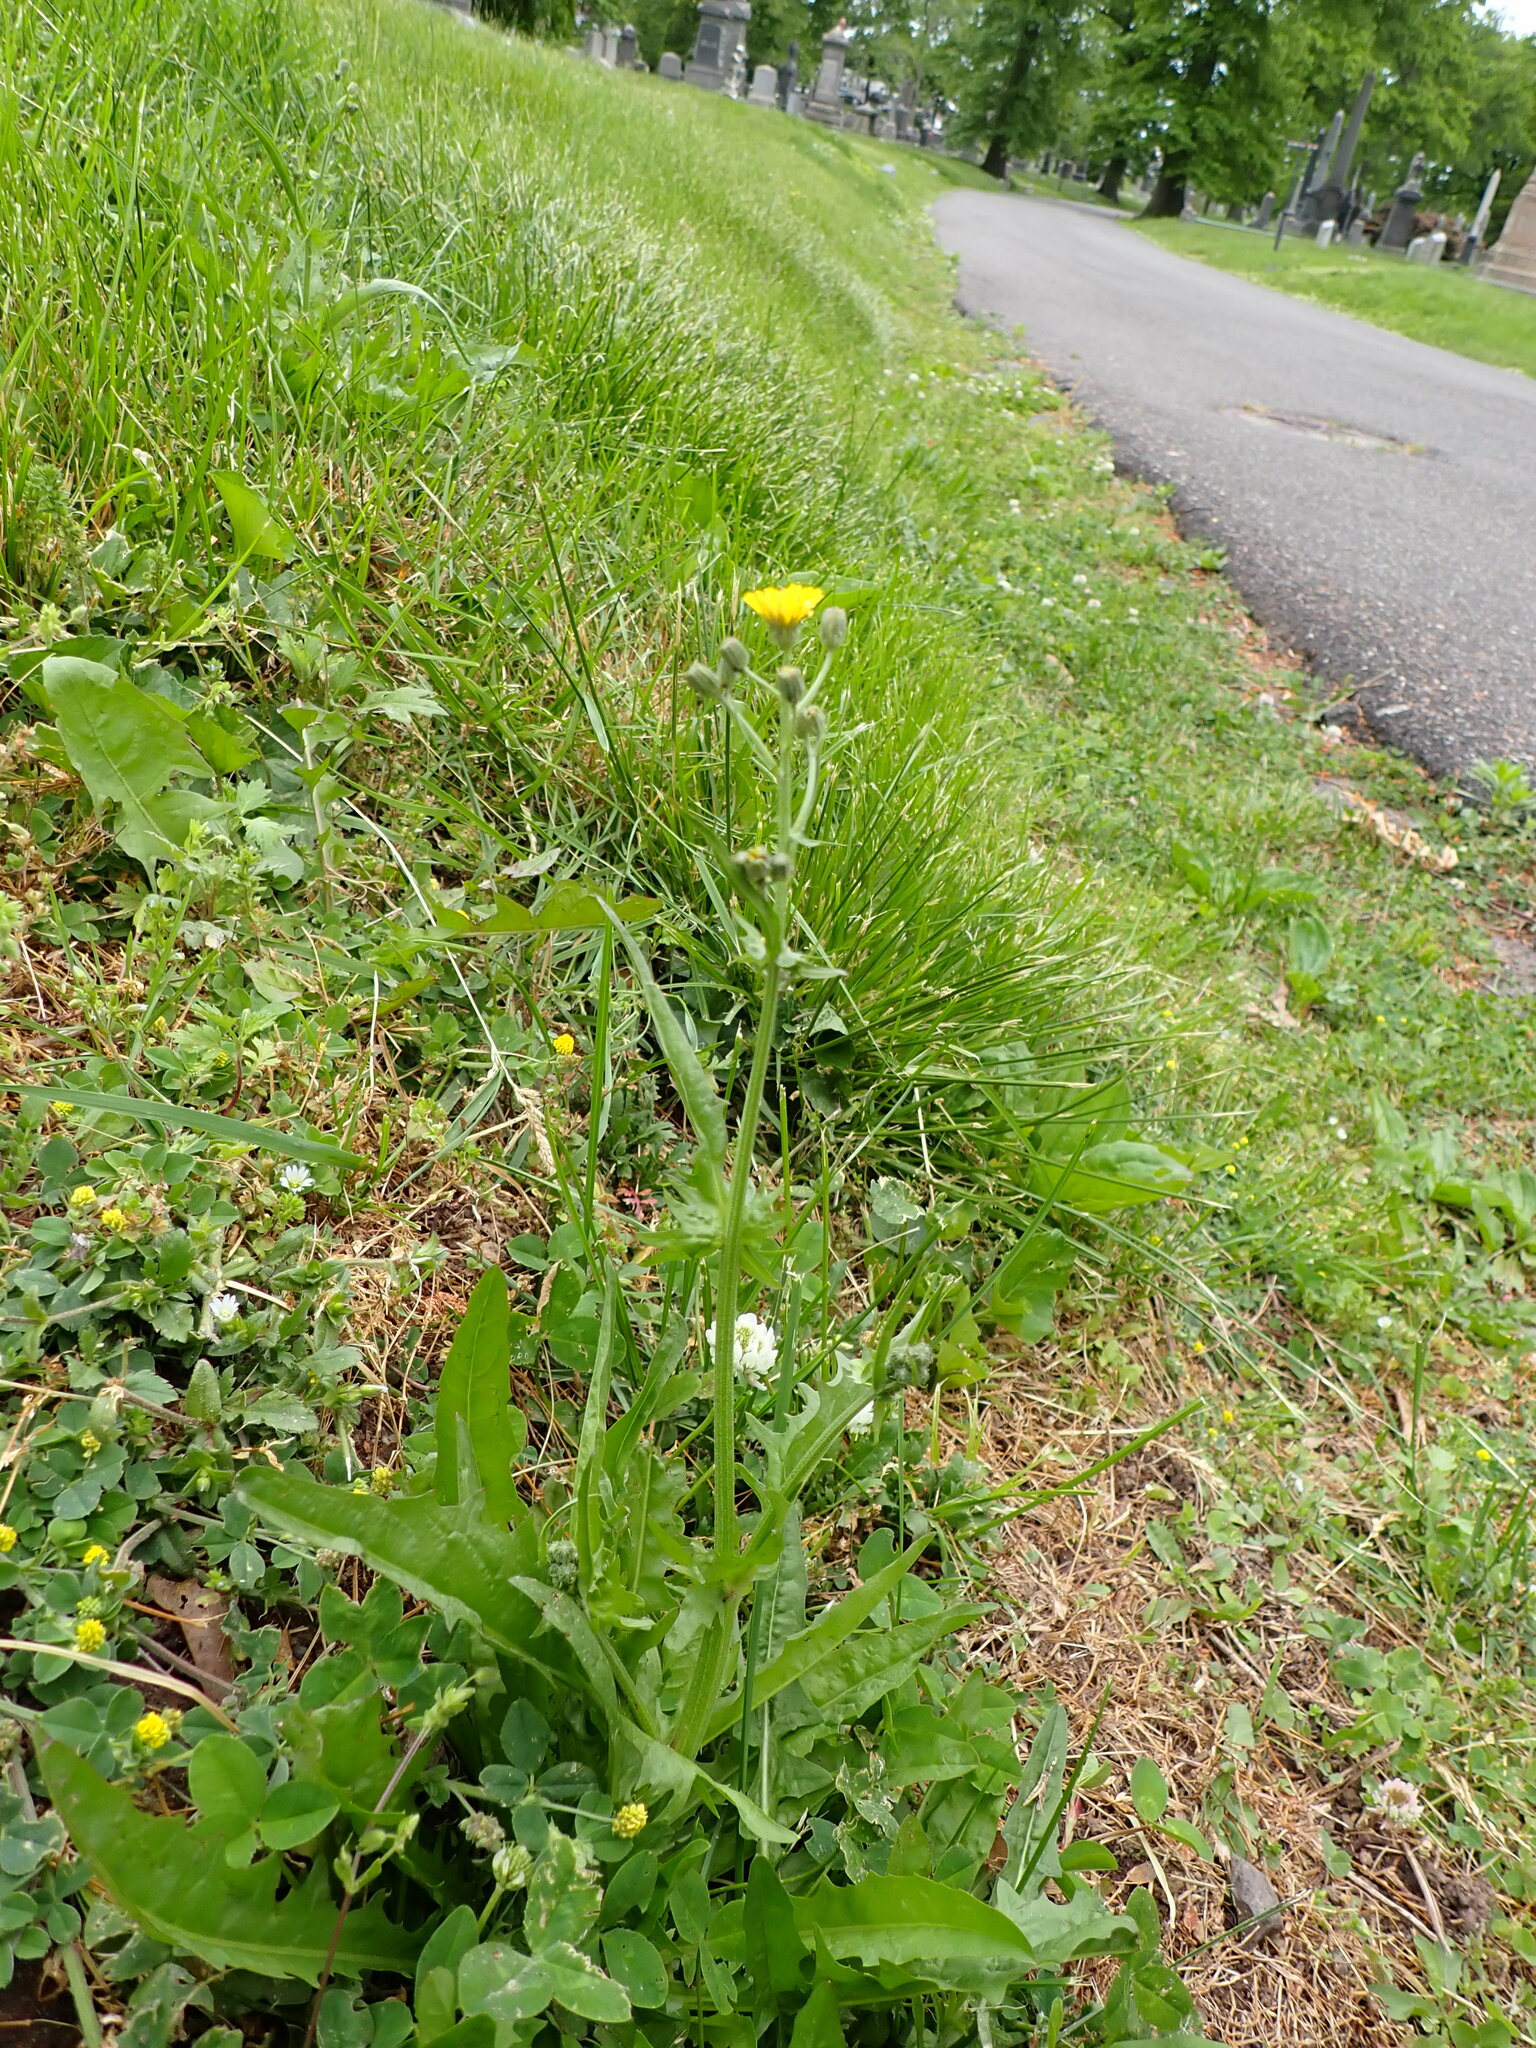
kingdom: Plantae
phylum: Tracheophyta
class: Magnoliopsida
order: Asterales
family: Asteraceae
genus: Crepis
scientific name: Crepis capillaris
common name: Smooth hawksbeard
